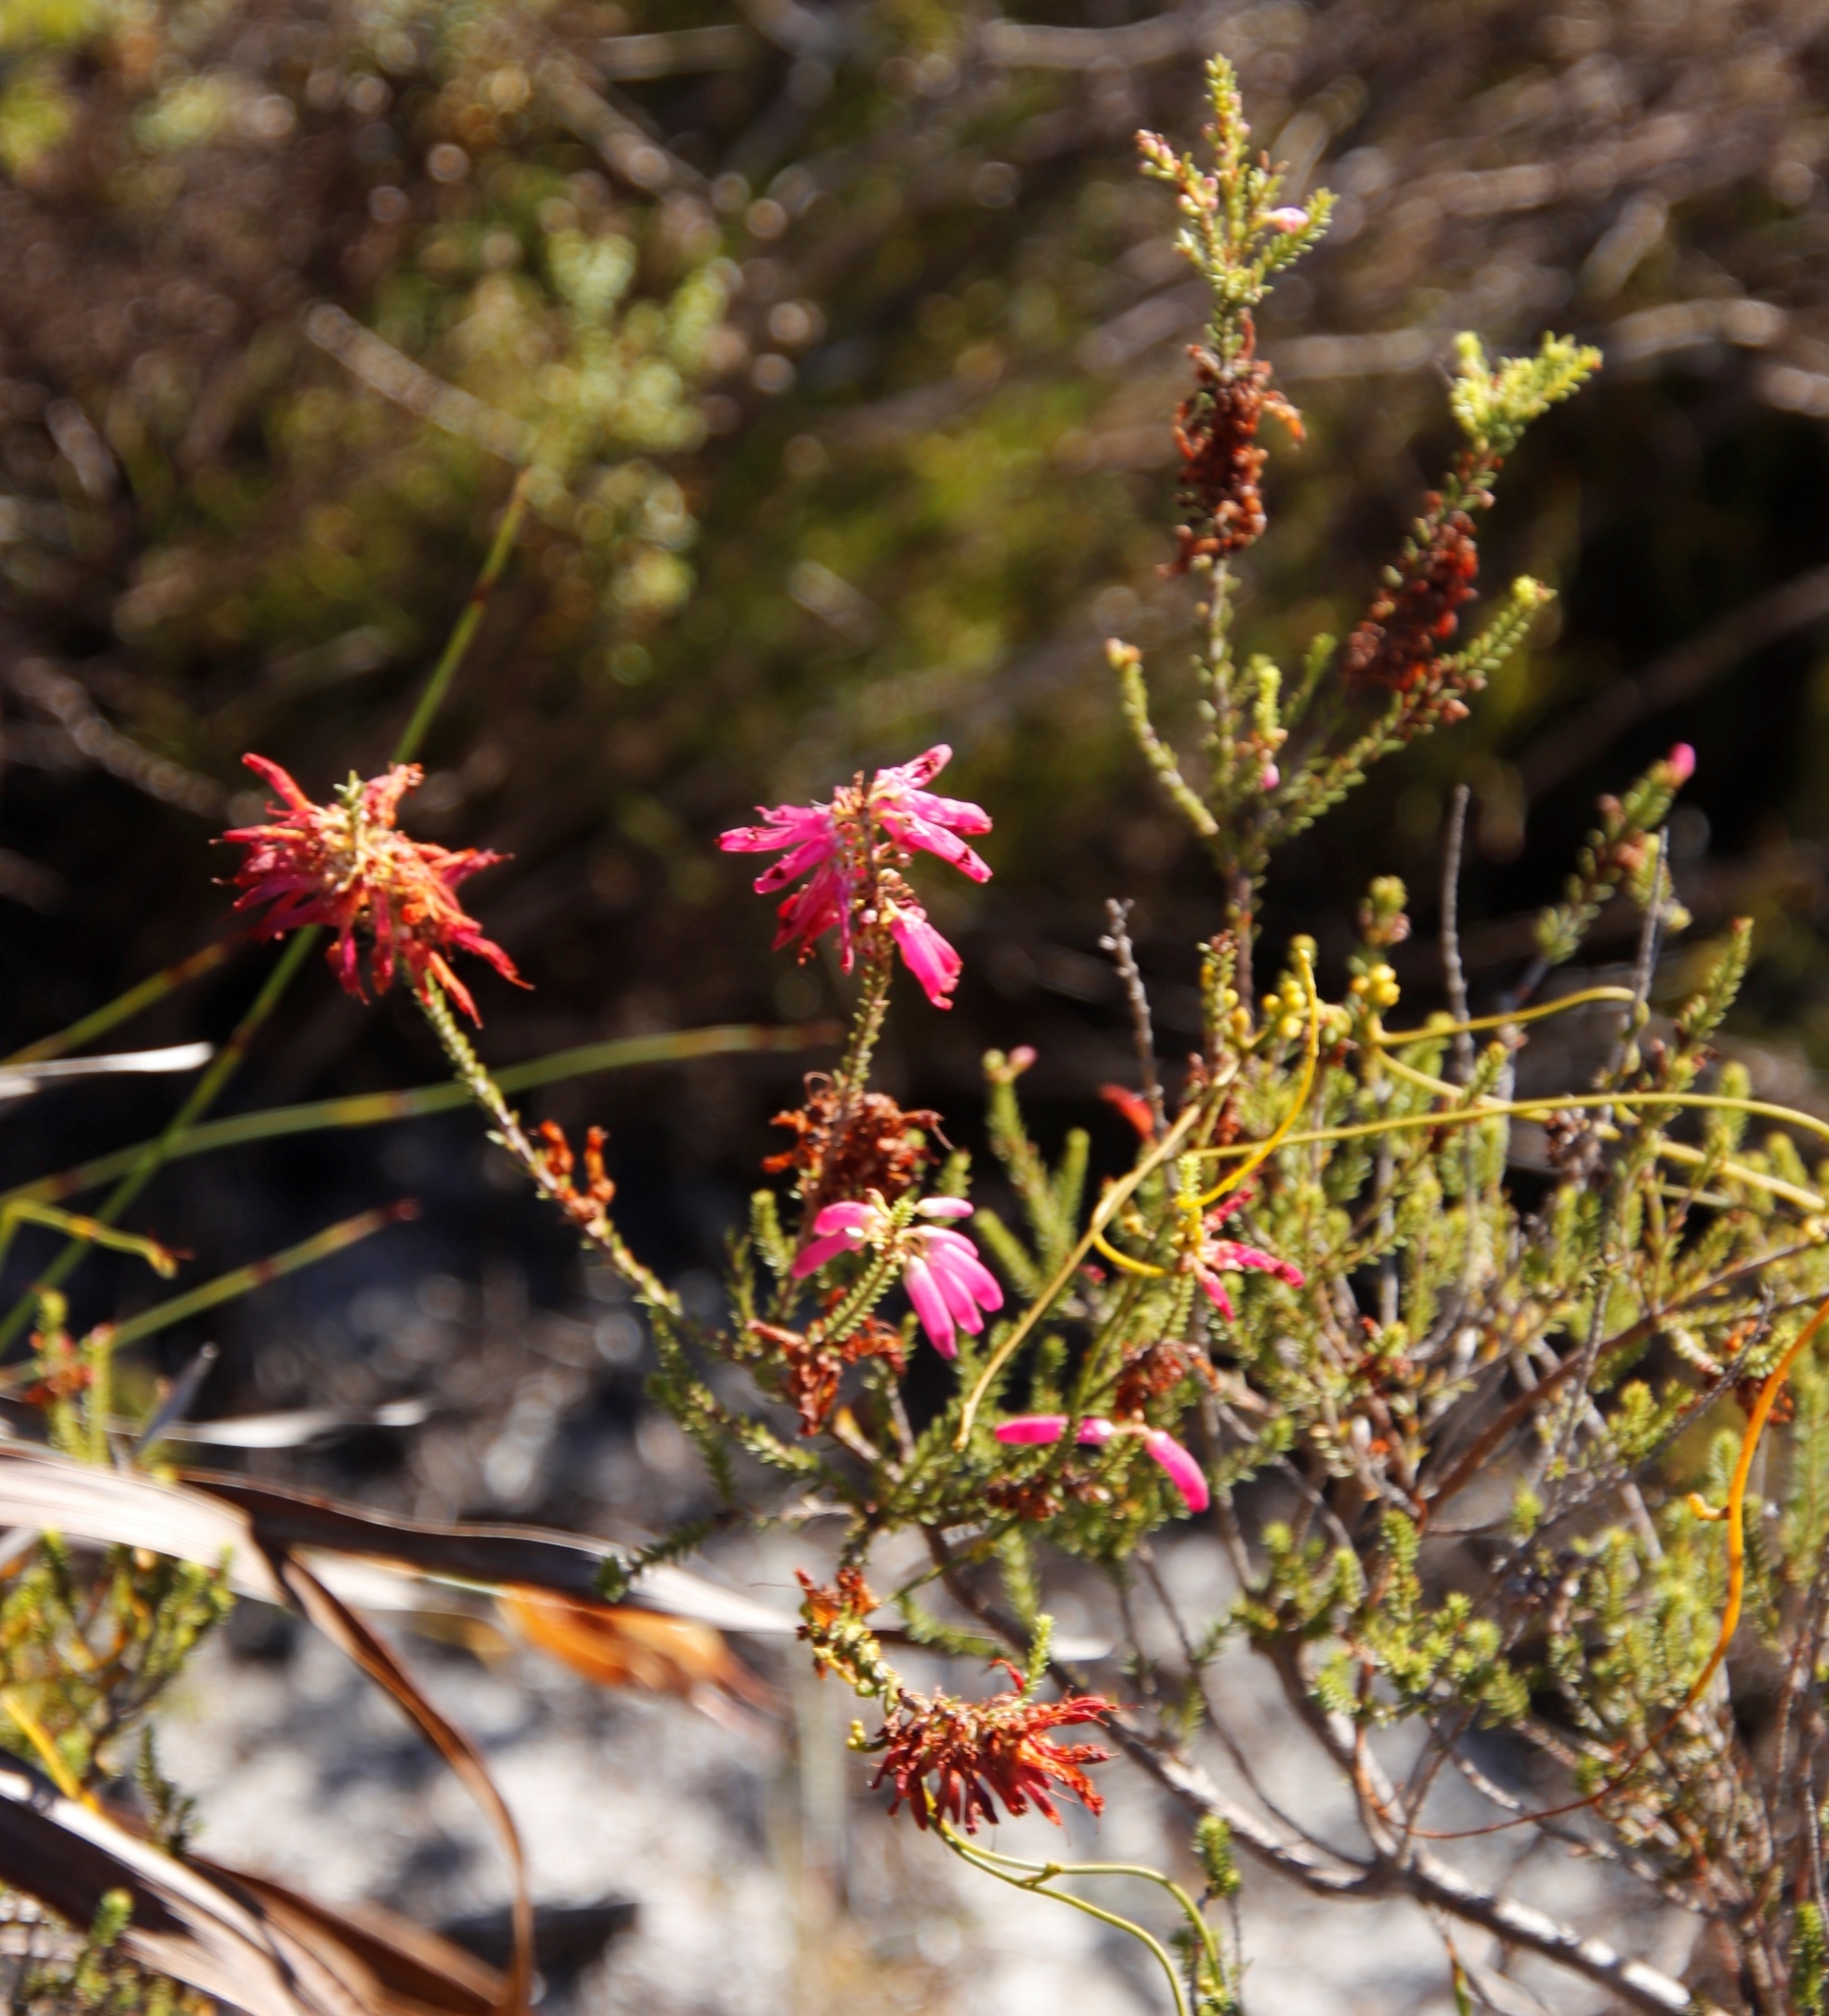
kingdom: Plantae
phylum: Tracheophyta
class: Magnoliopsida
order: Ericales
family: Ericaceae
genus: Erica
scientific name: Erica mammosa
